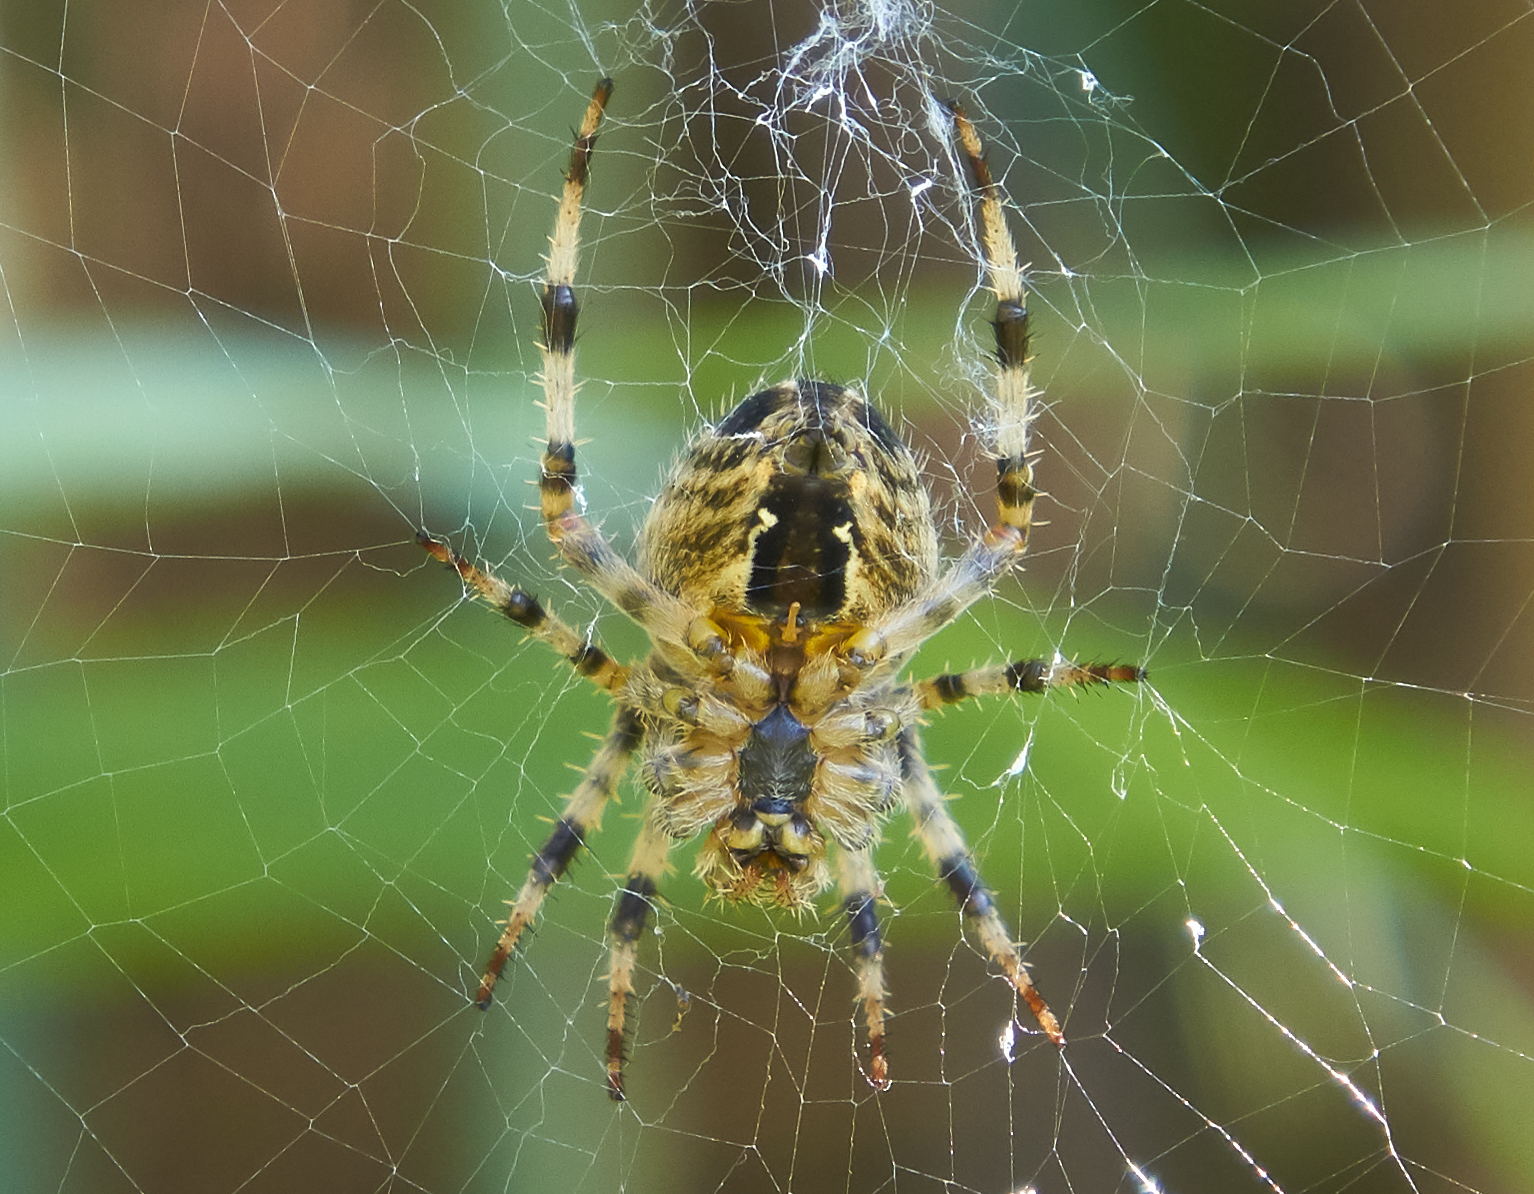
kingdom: Animalia
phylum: Arthropoda
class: Arachnida
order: Araneae
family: Araneidae
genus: Araneus
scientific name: Araneus diadematus
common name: Cross orbweaver
